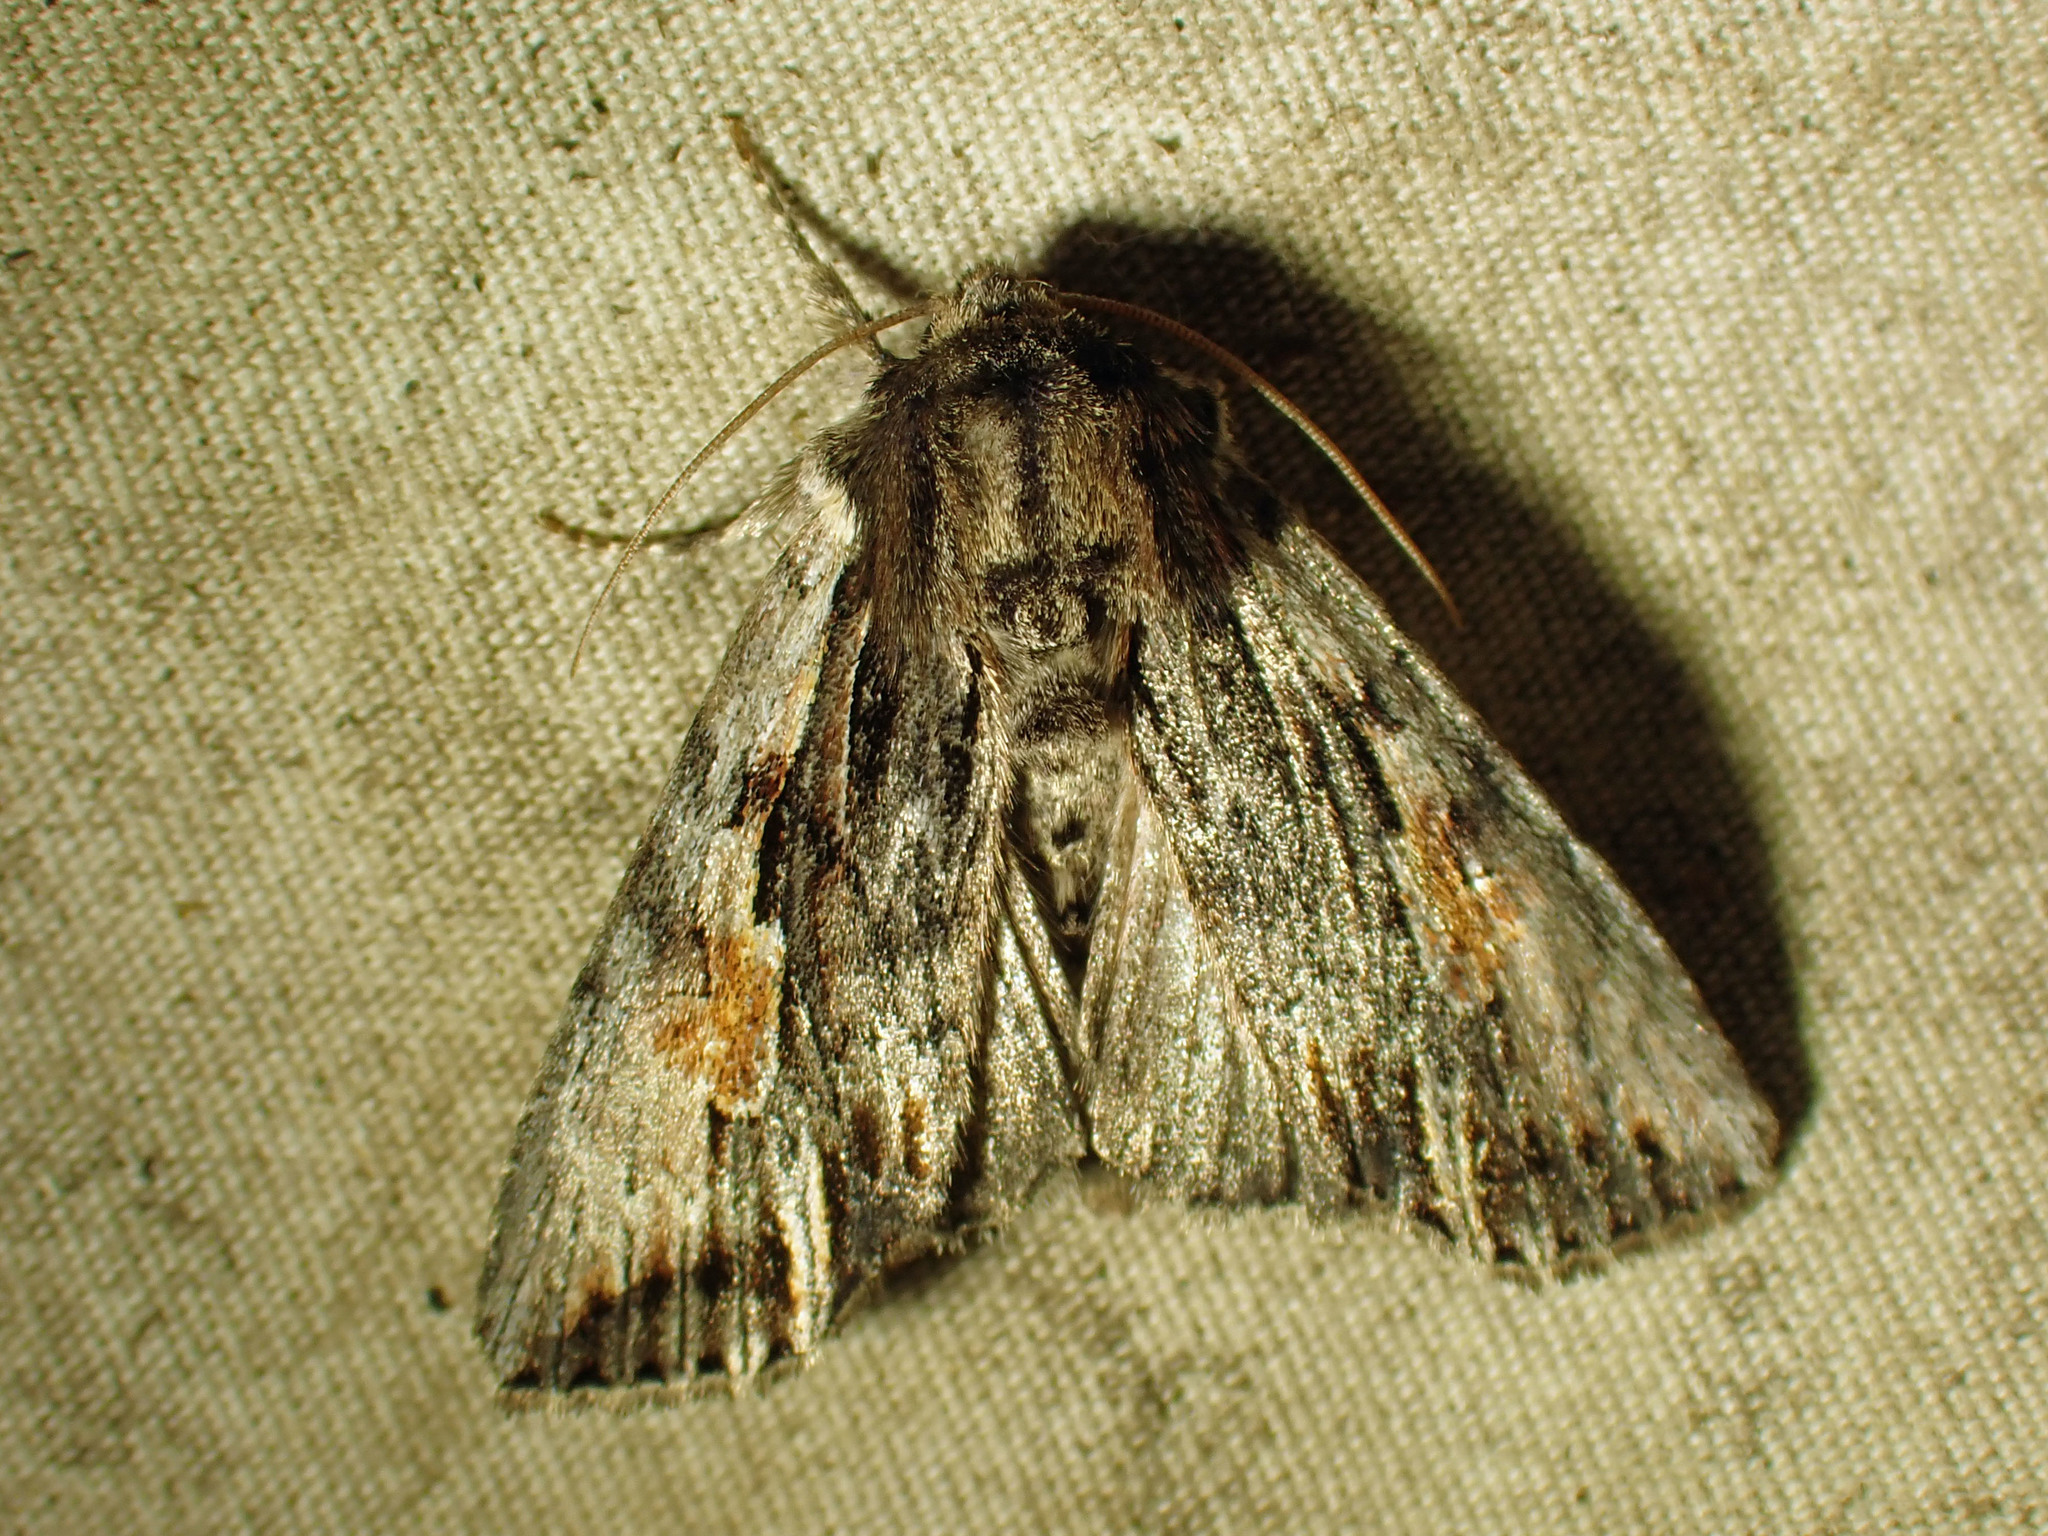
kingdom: Animalia
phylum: Arthropoda
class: Insecta
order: Lepidoptera
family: Noctuidae
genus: Achatia
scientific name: Achatia evicta
